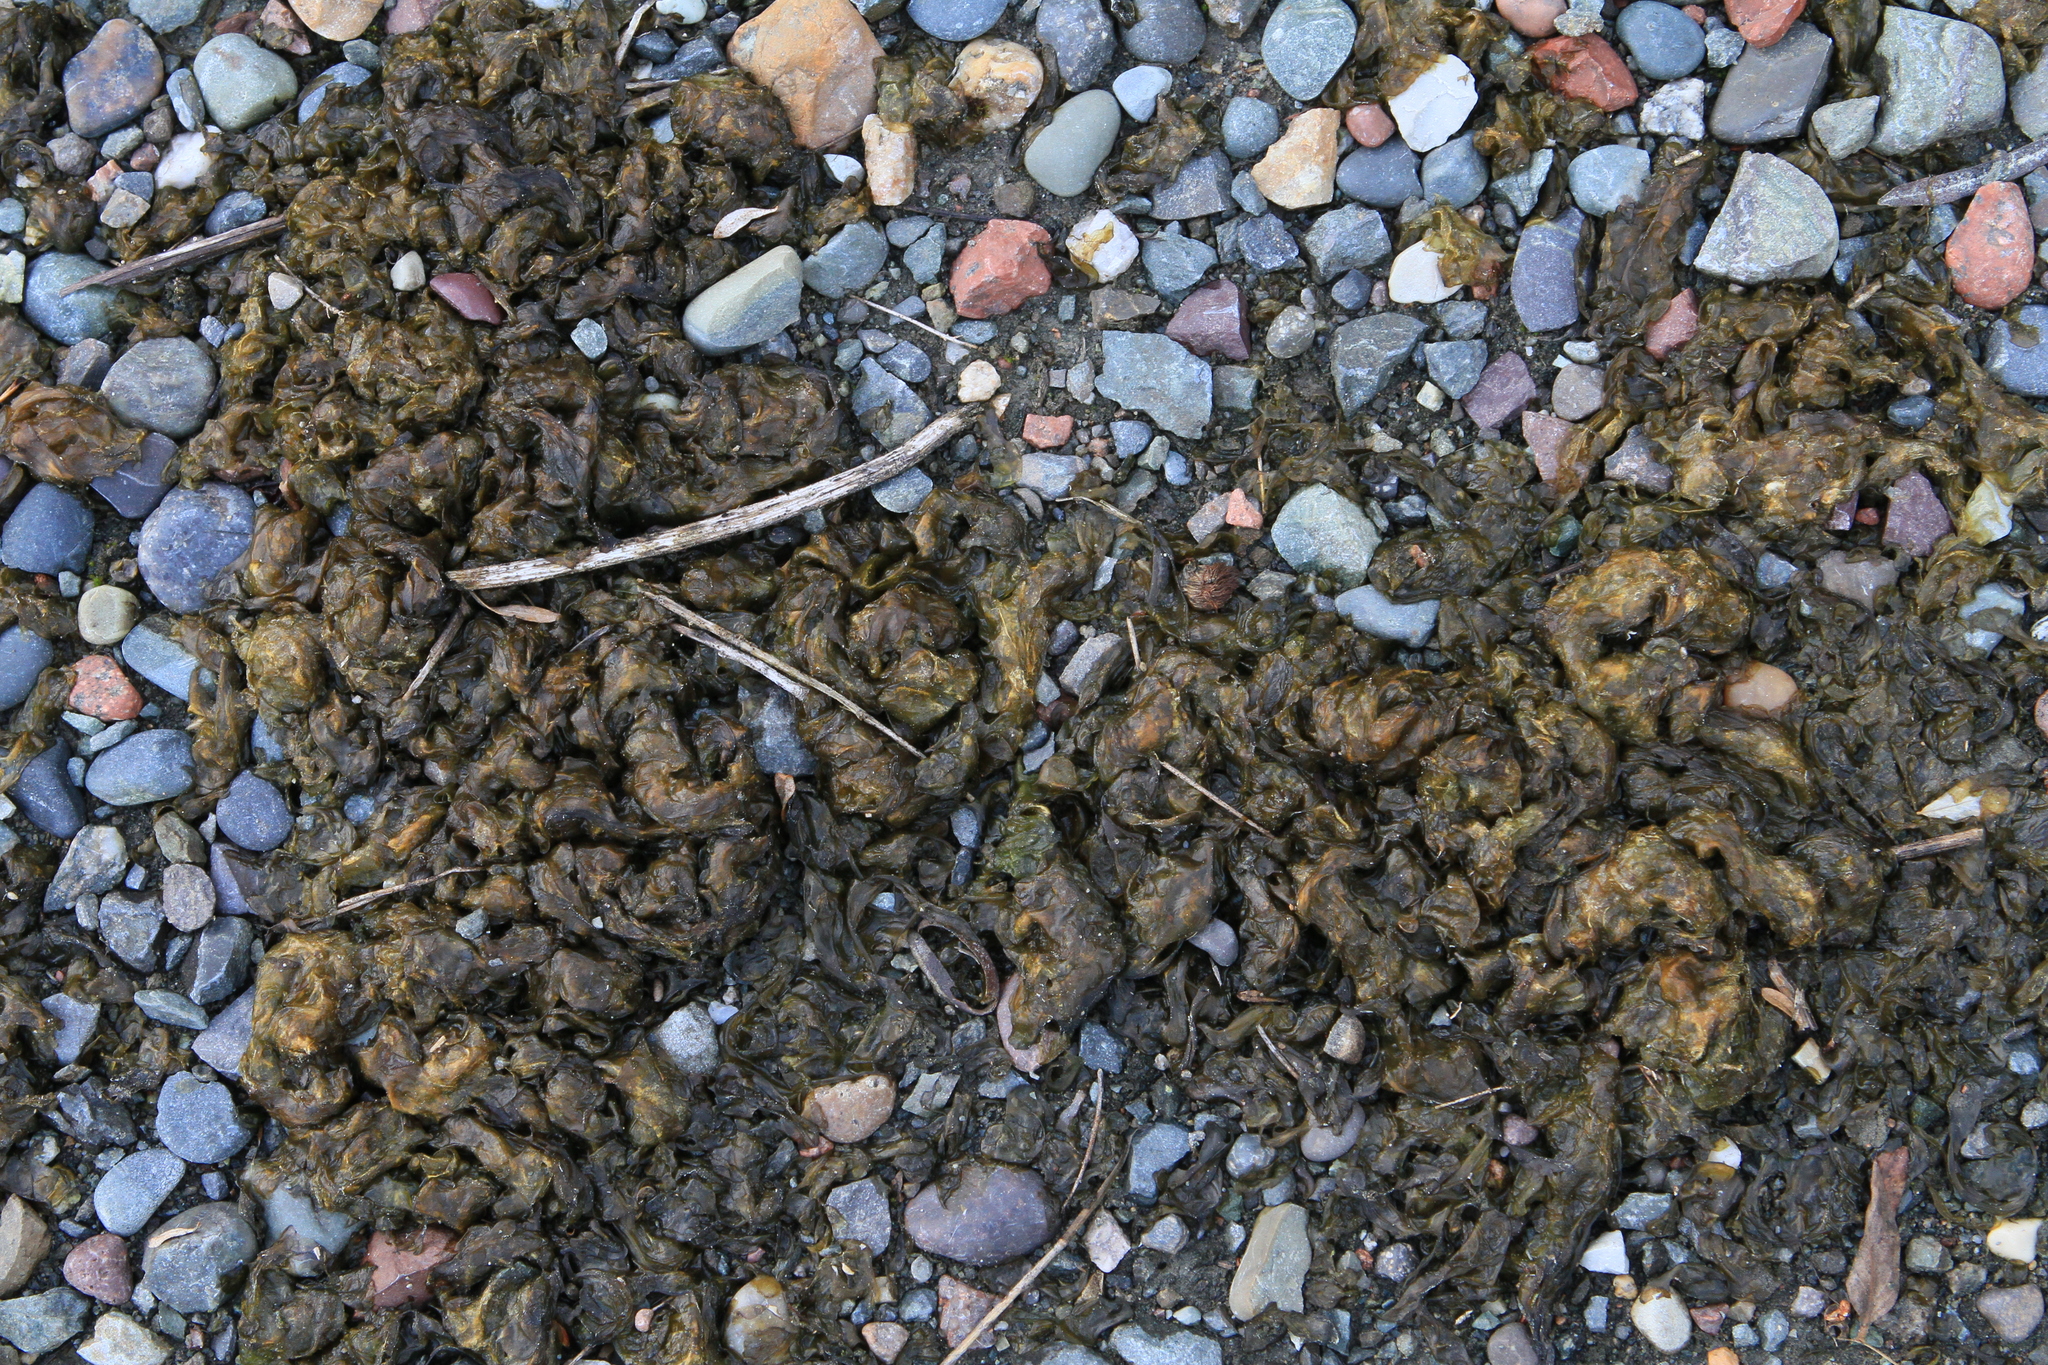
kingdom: Bacteria
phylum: Cyanobacteria
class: Cyanobacteriia
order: Cyanobacteriales
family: Nostocaceae
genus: Nostoc
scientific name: Nostoc commune
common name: Star jelly
